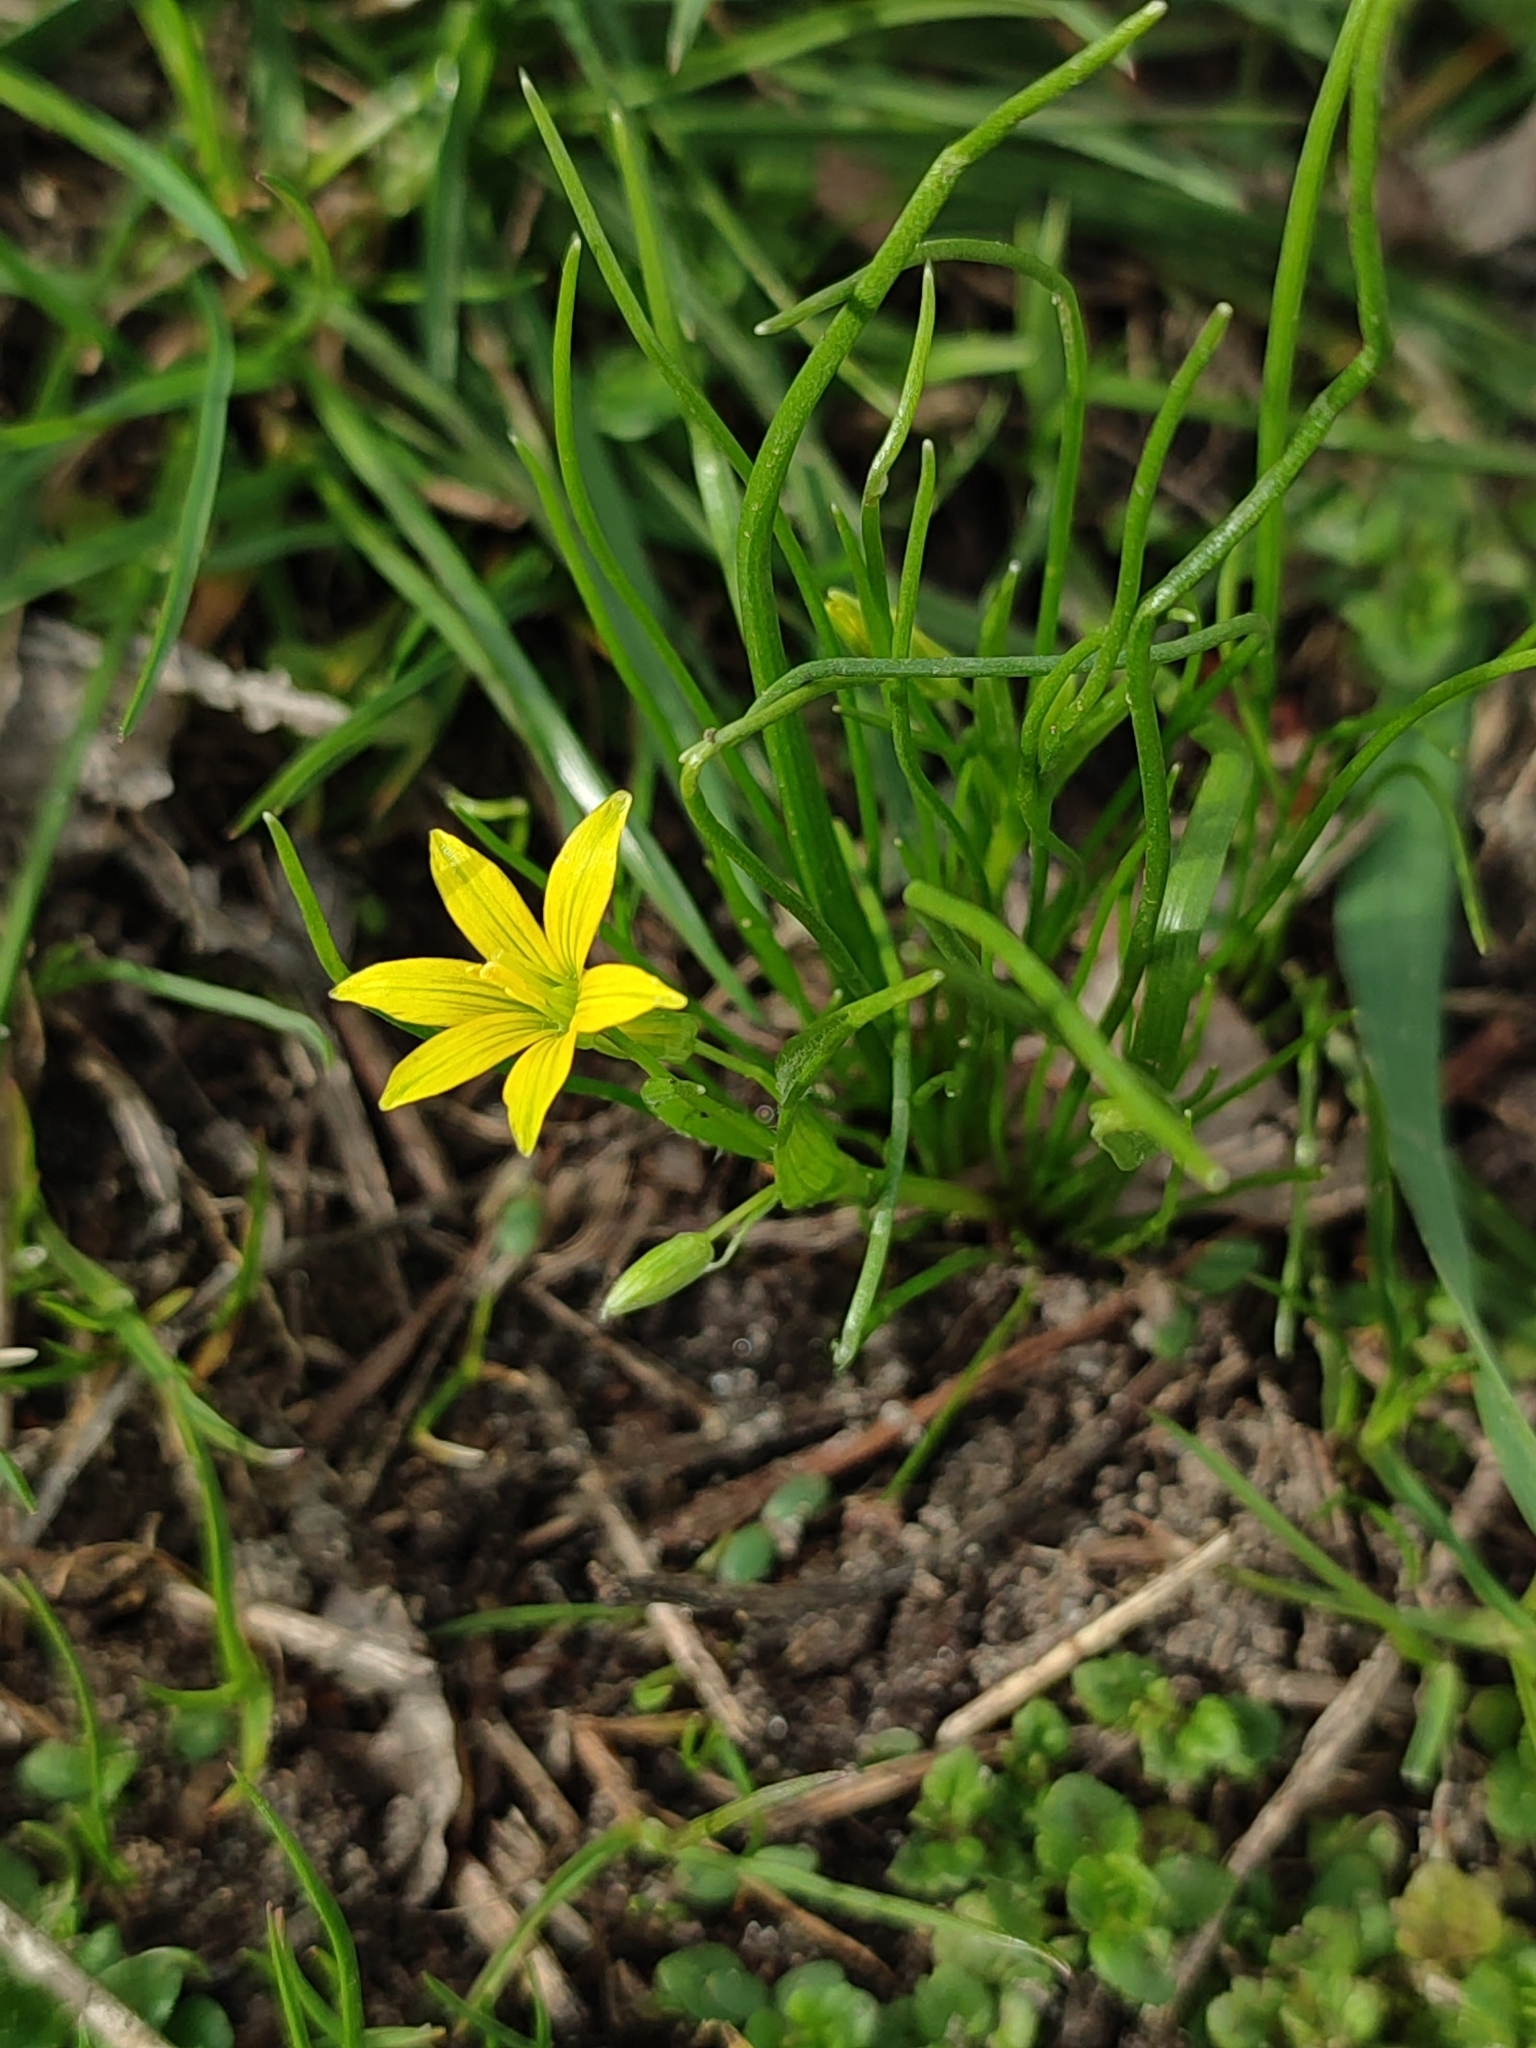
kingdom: Plantae
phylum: Tracheophyta
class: Liliopsida
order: Liliales
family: Liliaceae
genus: Gagea
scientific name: Gagea minima
